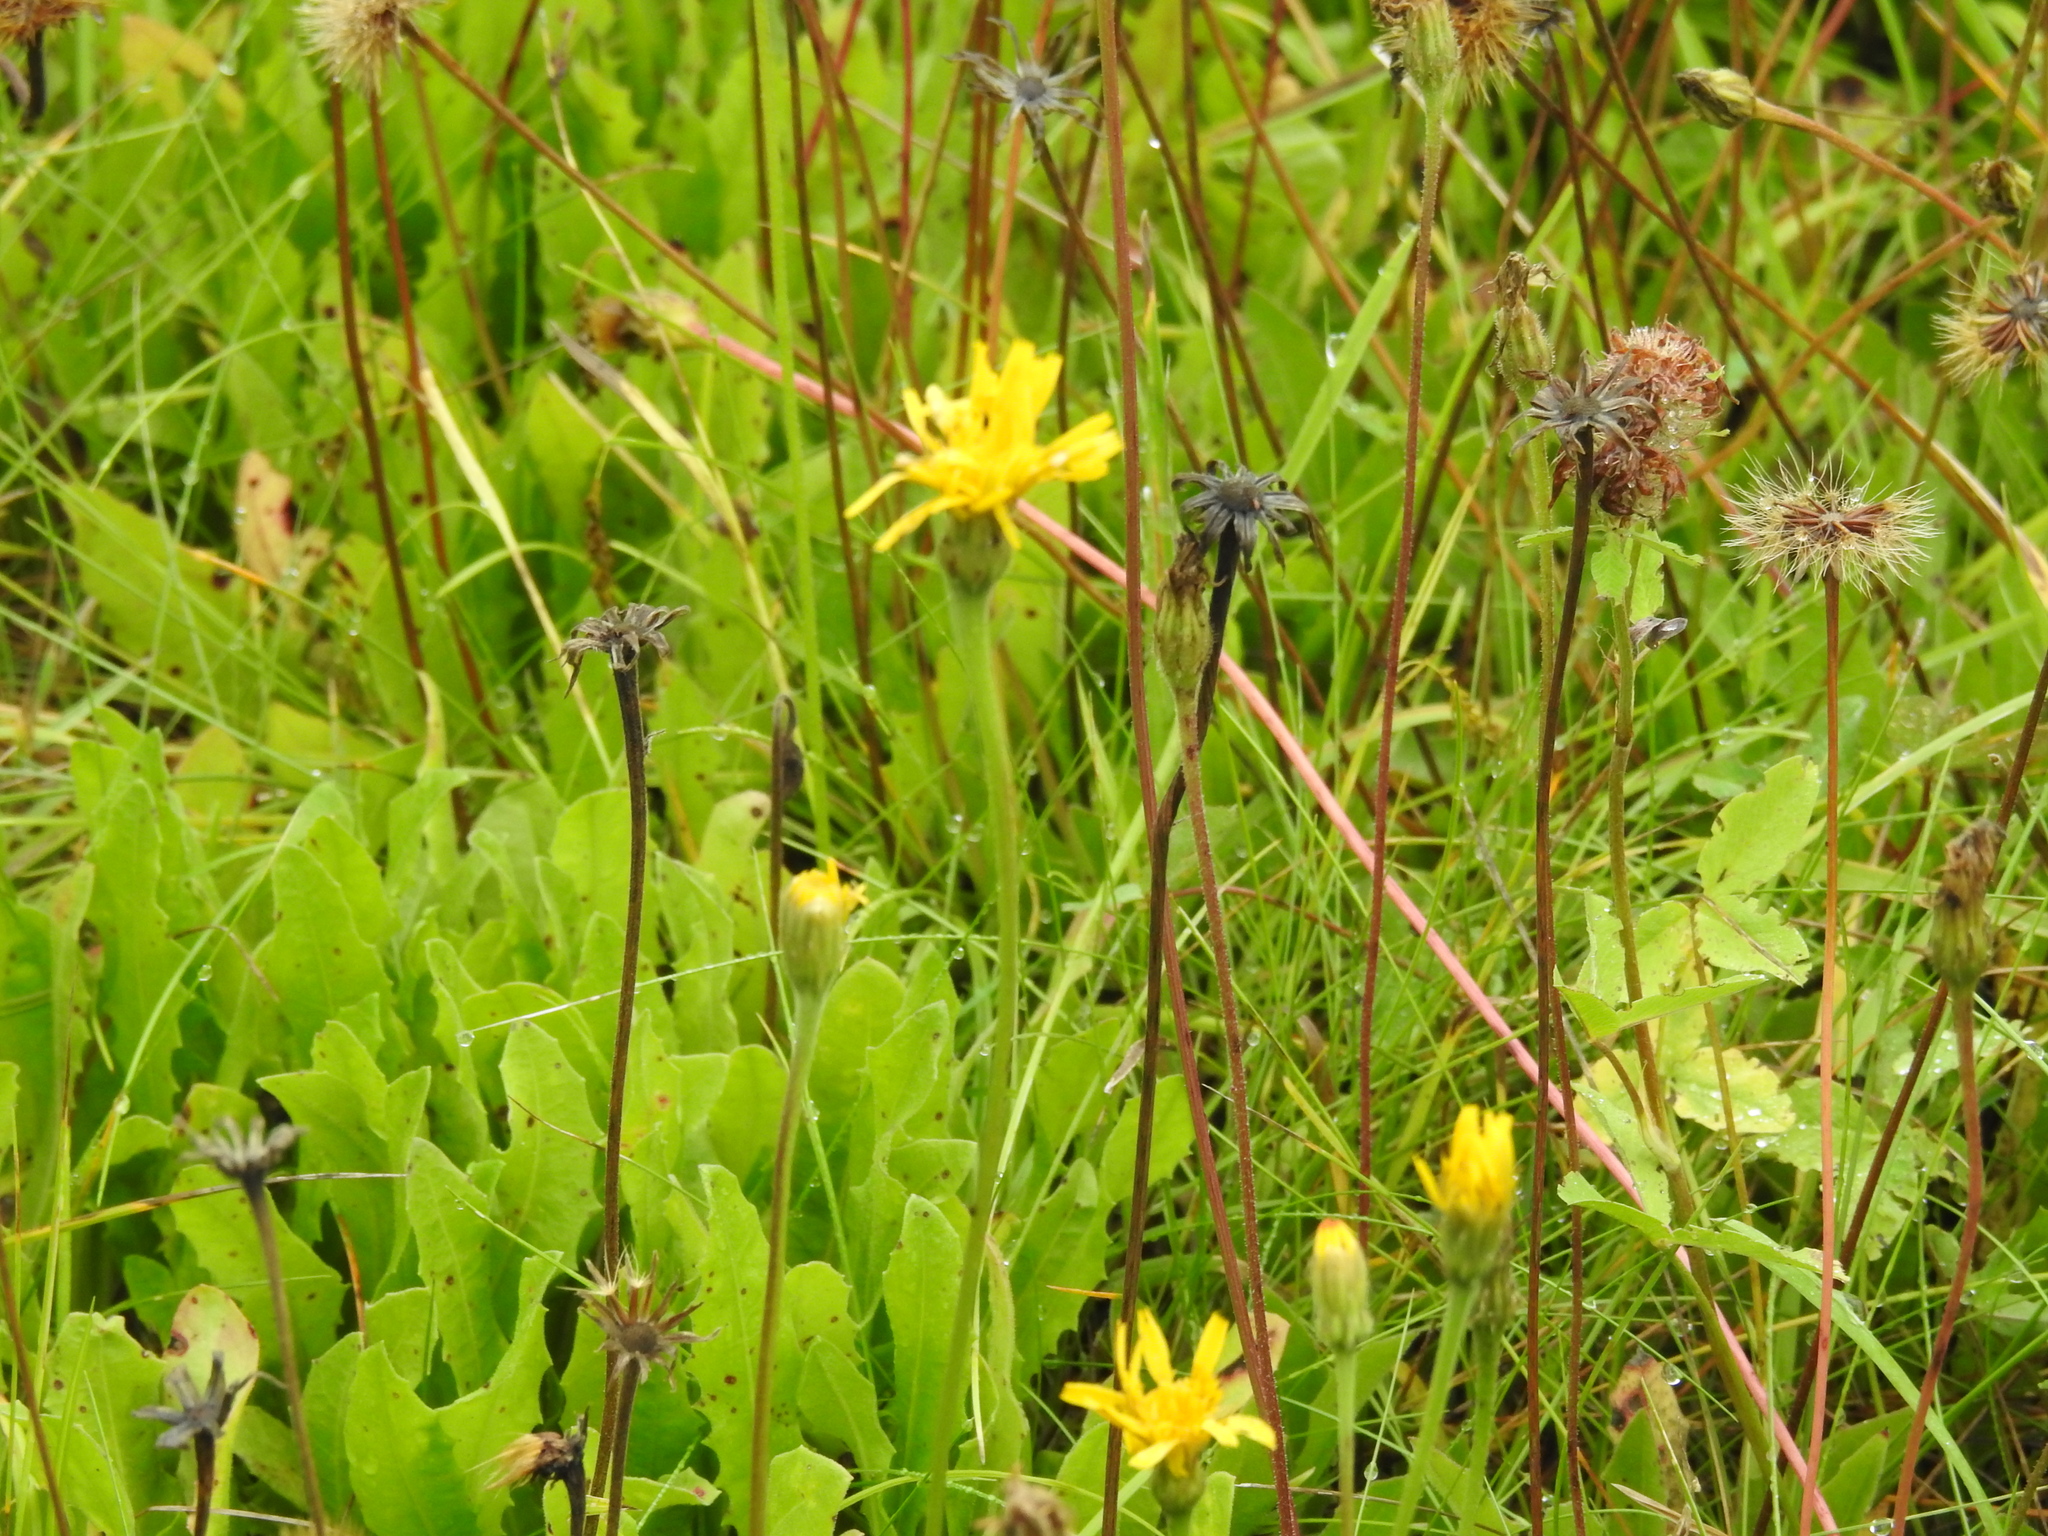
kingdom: Plantae
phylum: Tracheophyta
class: Magnoliopsida
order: Asterales
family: Asteraceae
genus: Leontodon
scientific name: Leontodon hispidus
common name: Rough hawkbit
